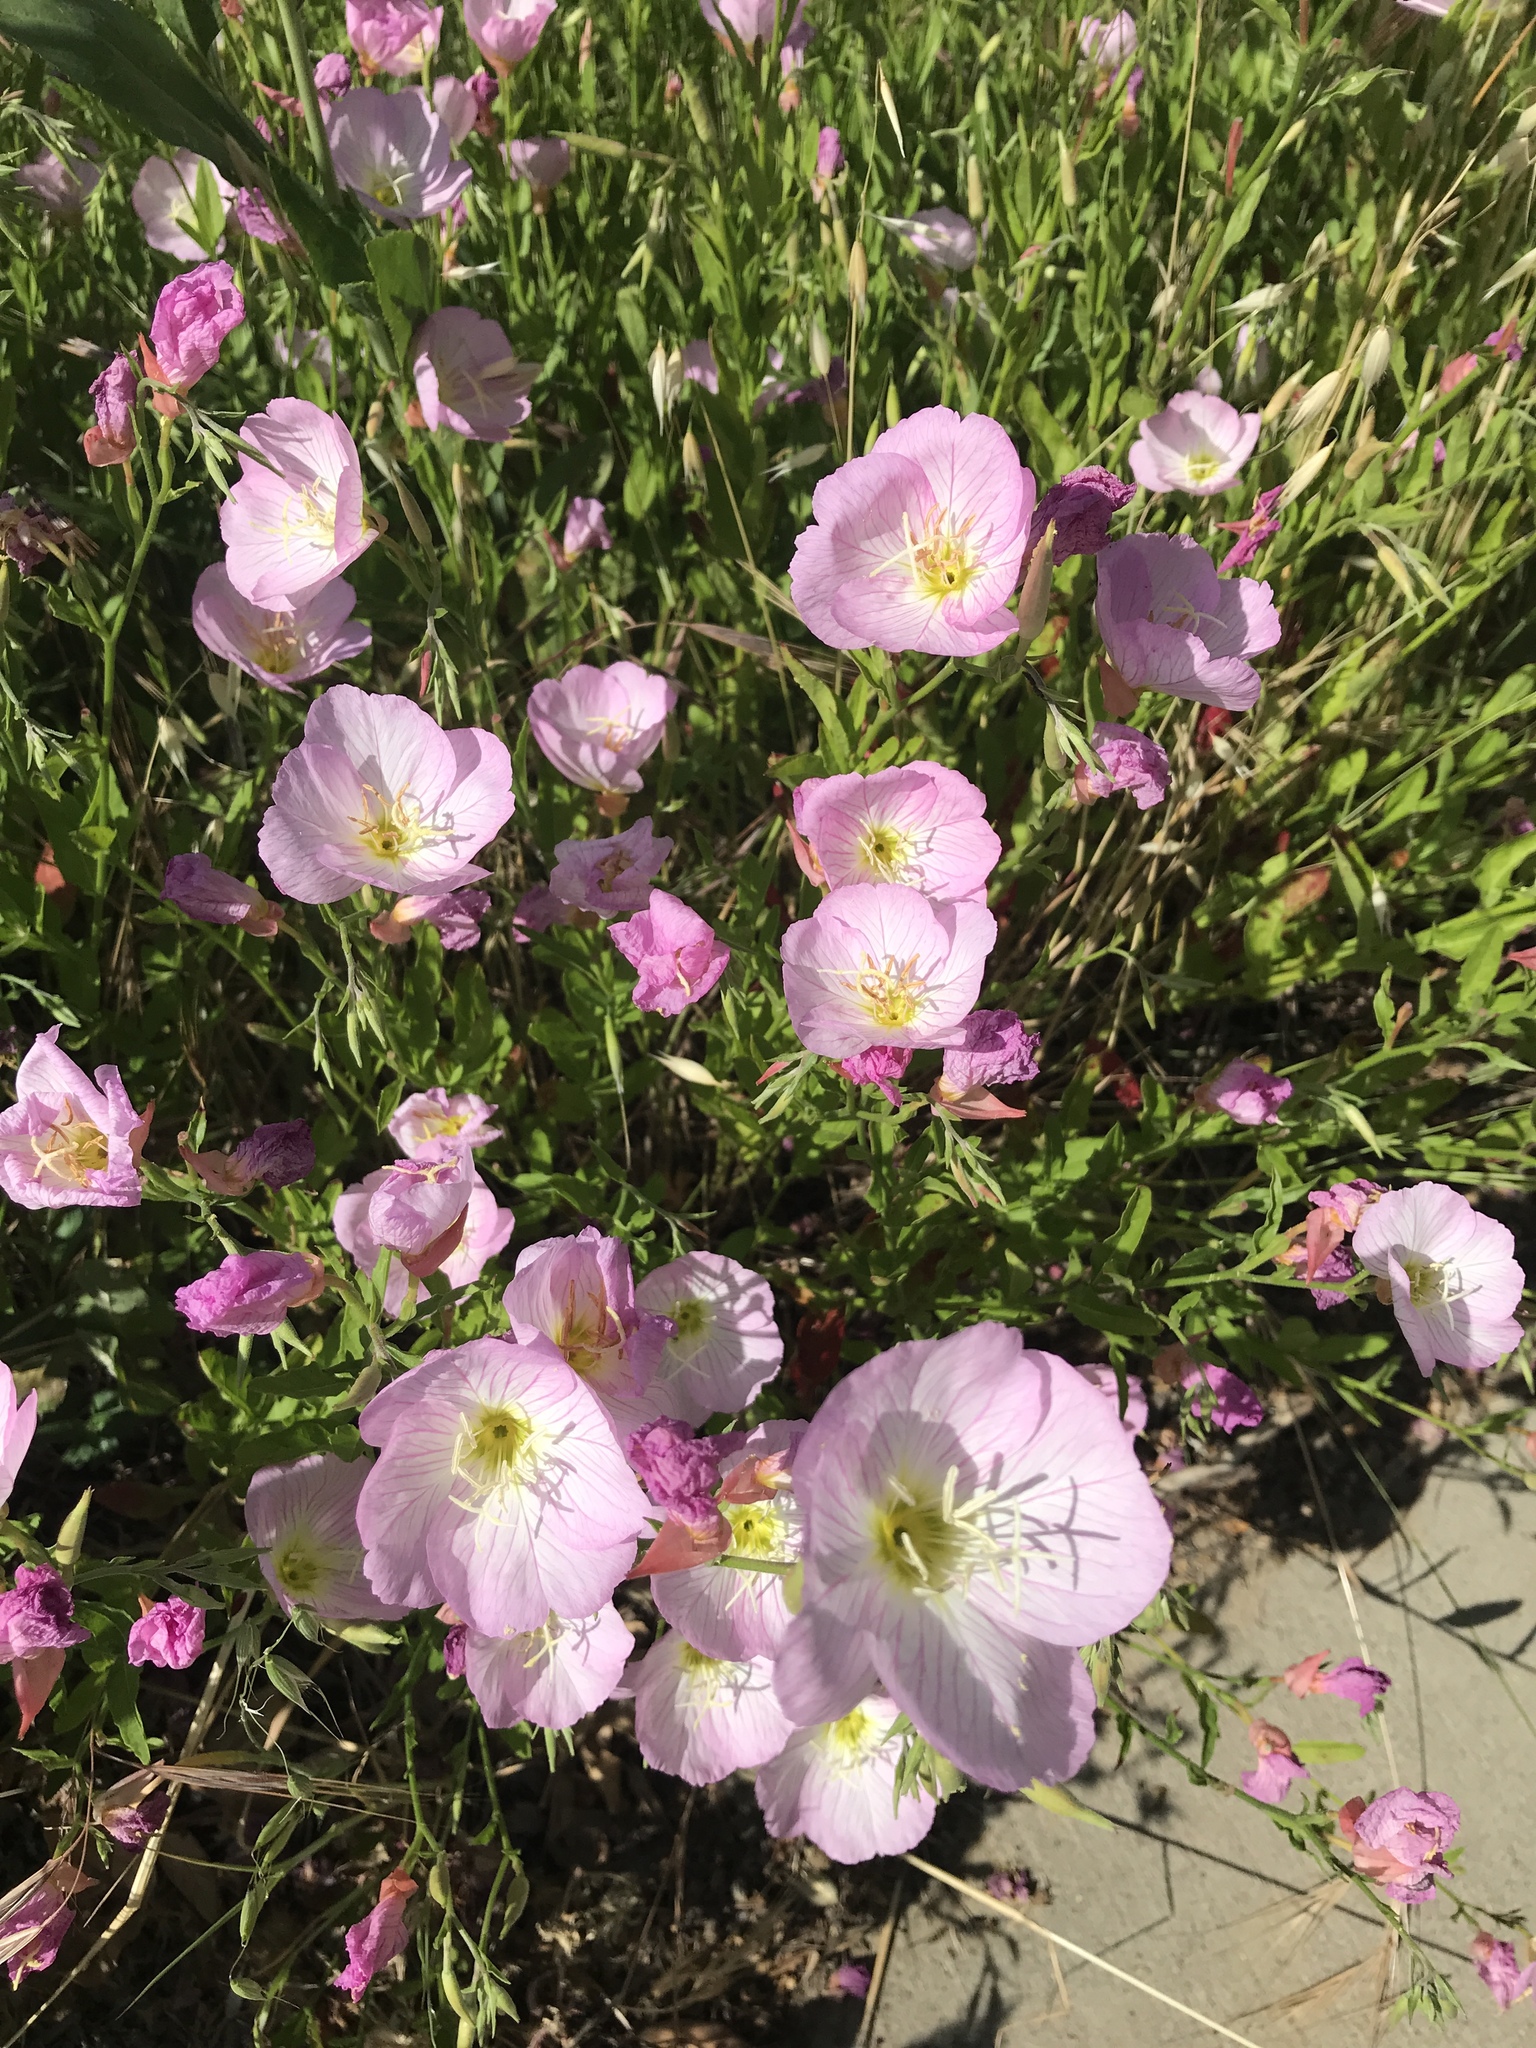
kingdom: Plantae
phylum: Tracheophyta
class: Magnoliopsida
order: Myrtales
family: Onagraceae
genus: Oenothera
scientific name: Oenothera speciosa
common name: White evening-primrose
